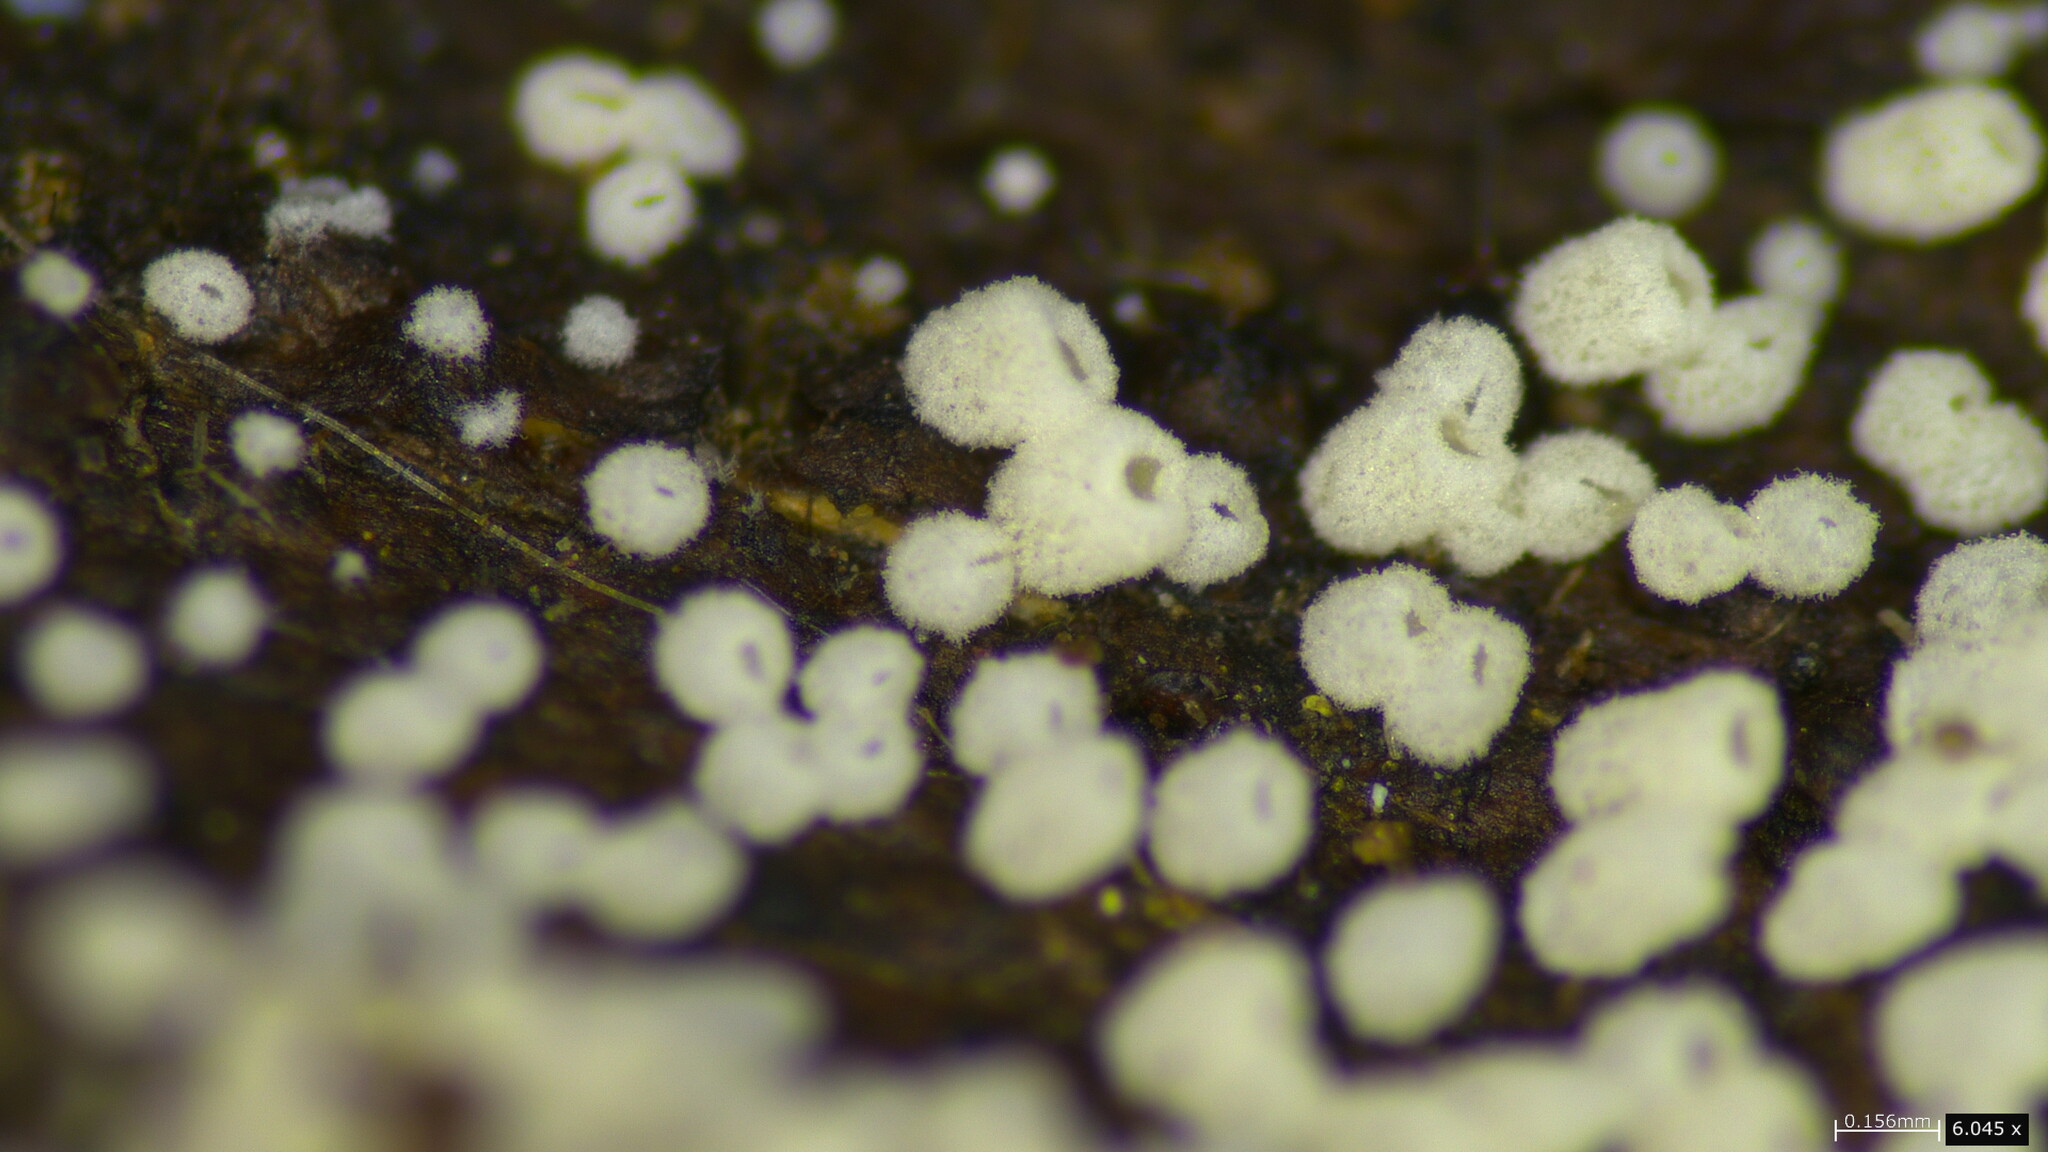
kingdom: Fungi
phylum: Basidiomycota
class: Agaricomycetes
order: Agaricales
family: Marasmiaceae
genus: Henningsomyces
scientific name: Henningsomyces candidus
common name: White tubelet
